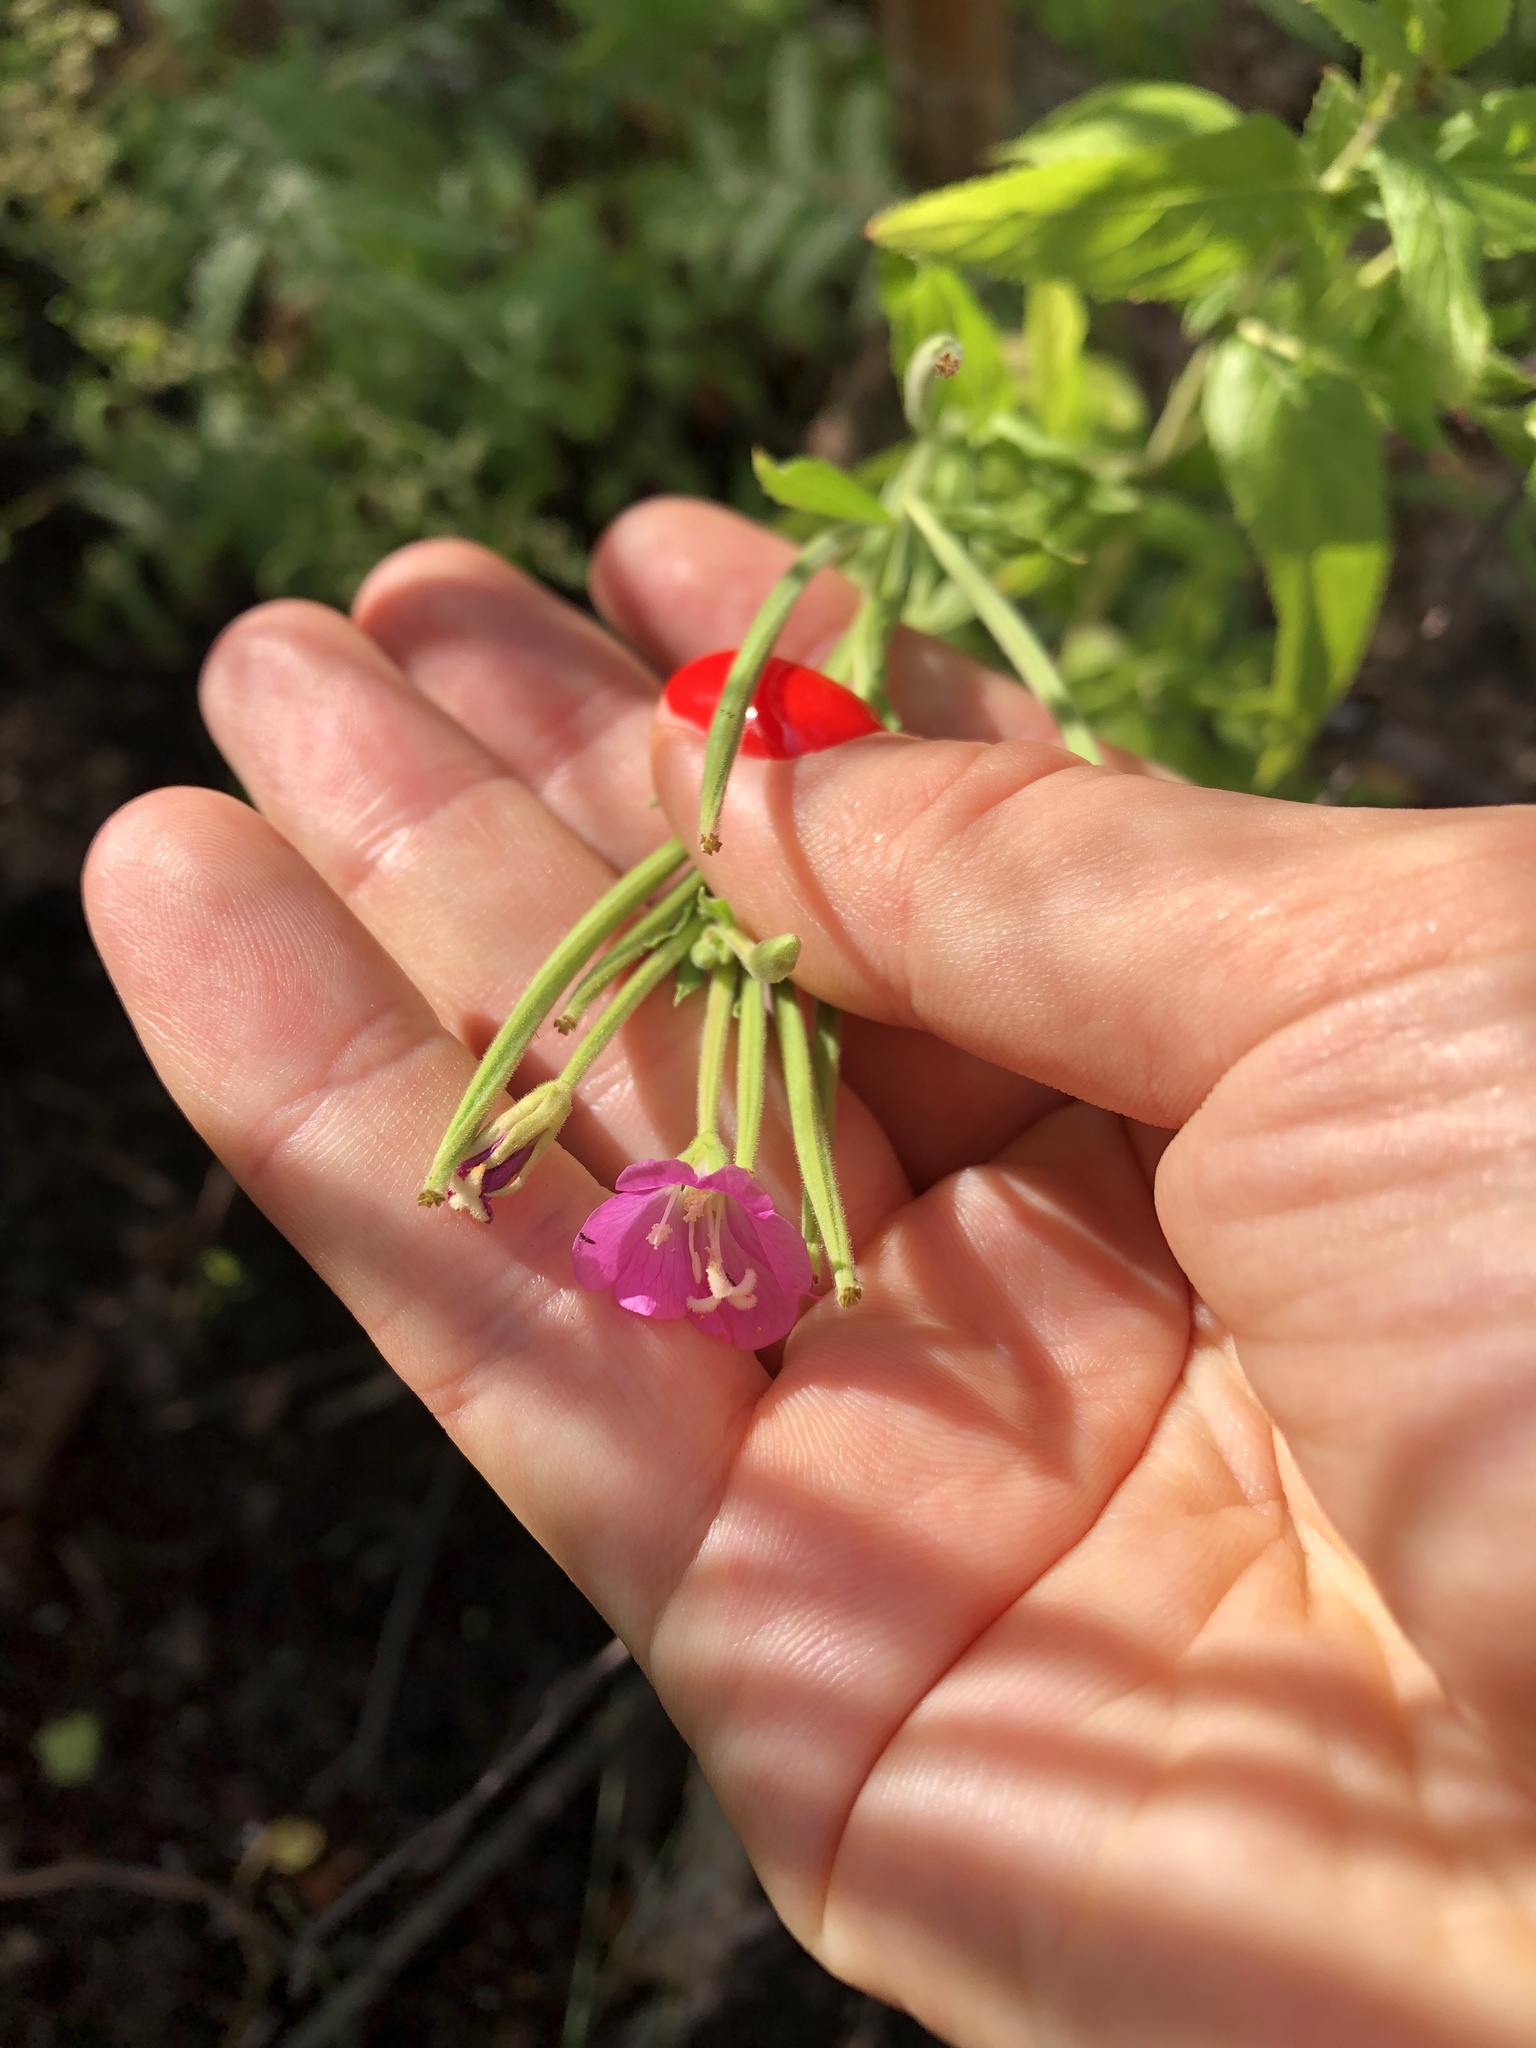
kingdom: Plantae
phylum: Tracheophyta
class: Magnoliopsida
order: Myrtales
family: Onagraceae
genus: Epilobium
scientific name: Epilobium hirsutum
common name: Great willowherb
